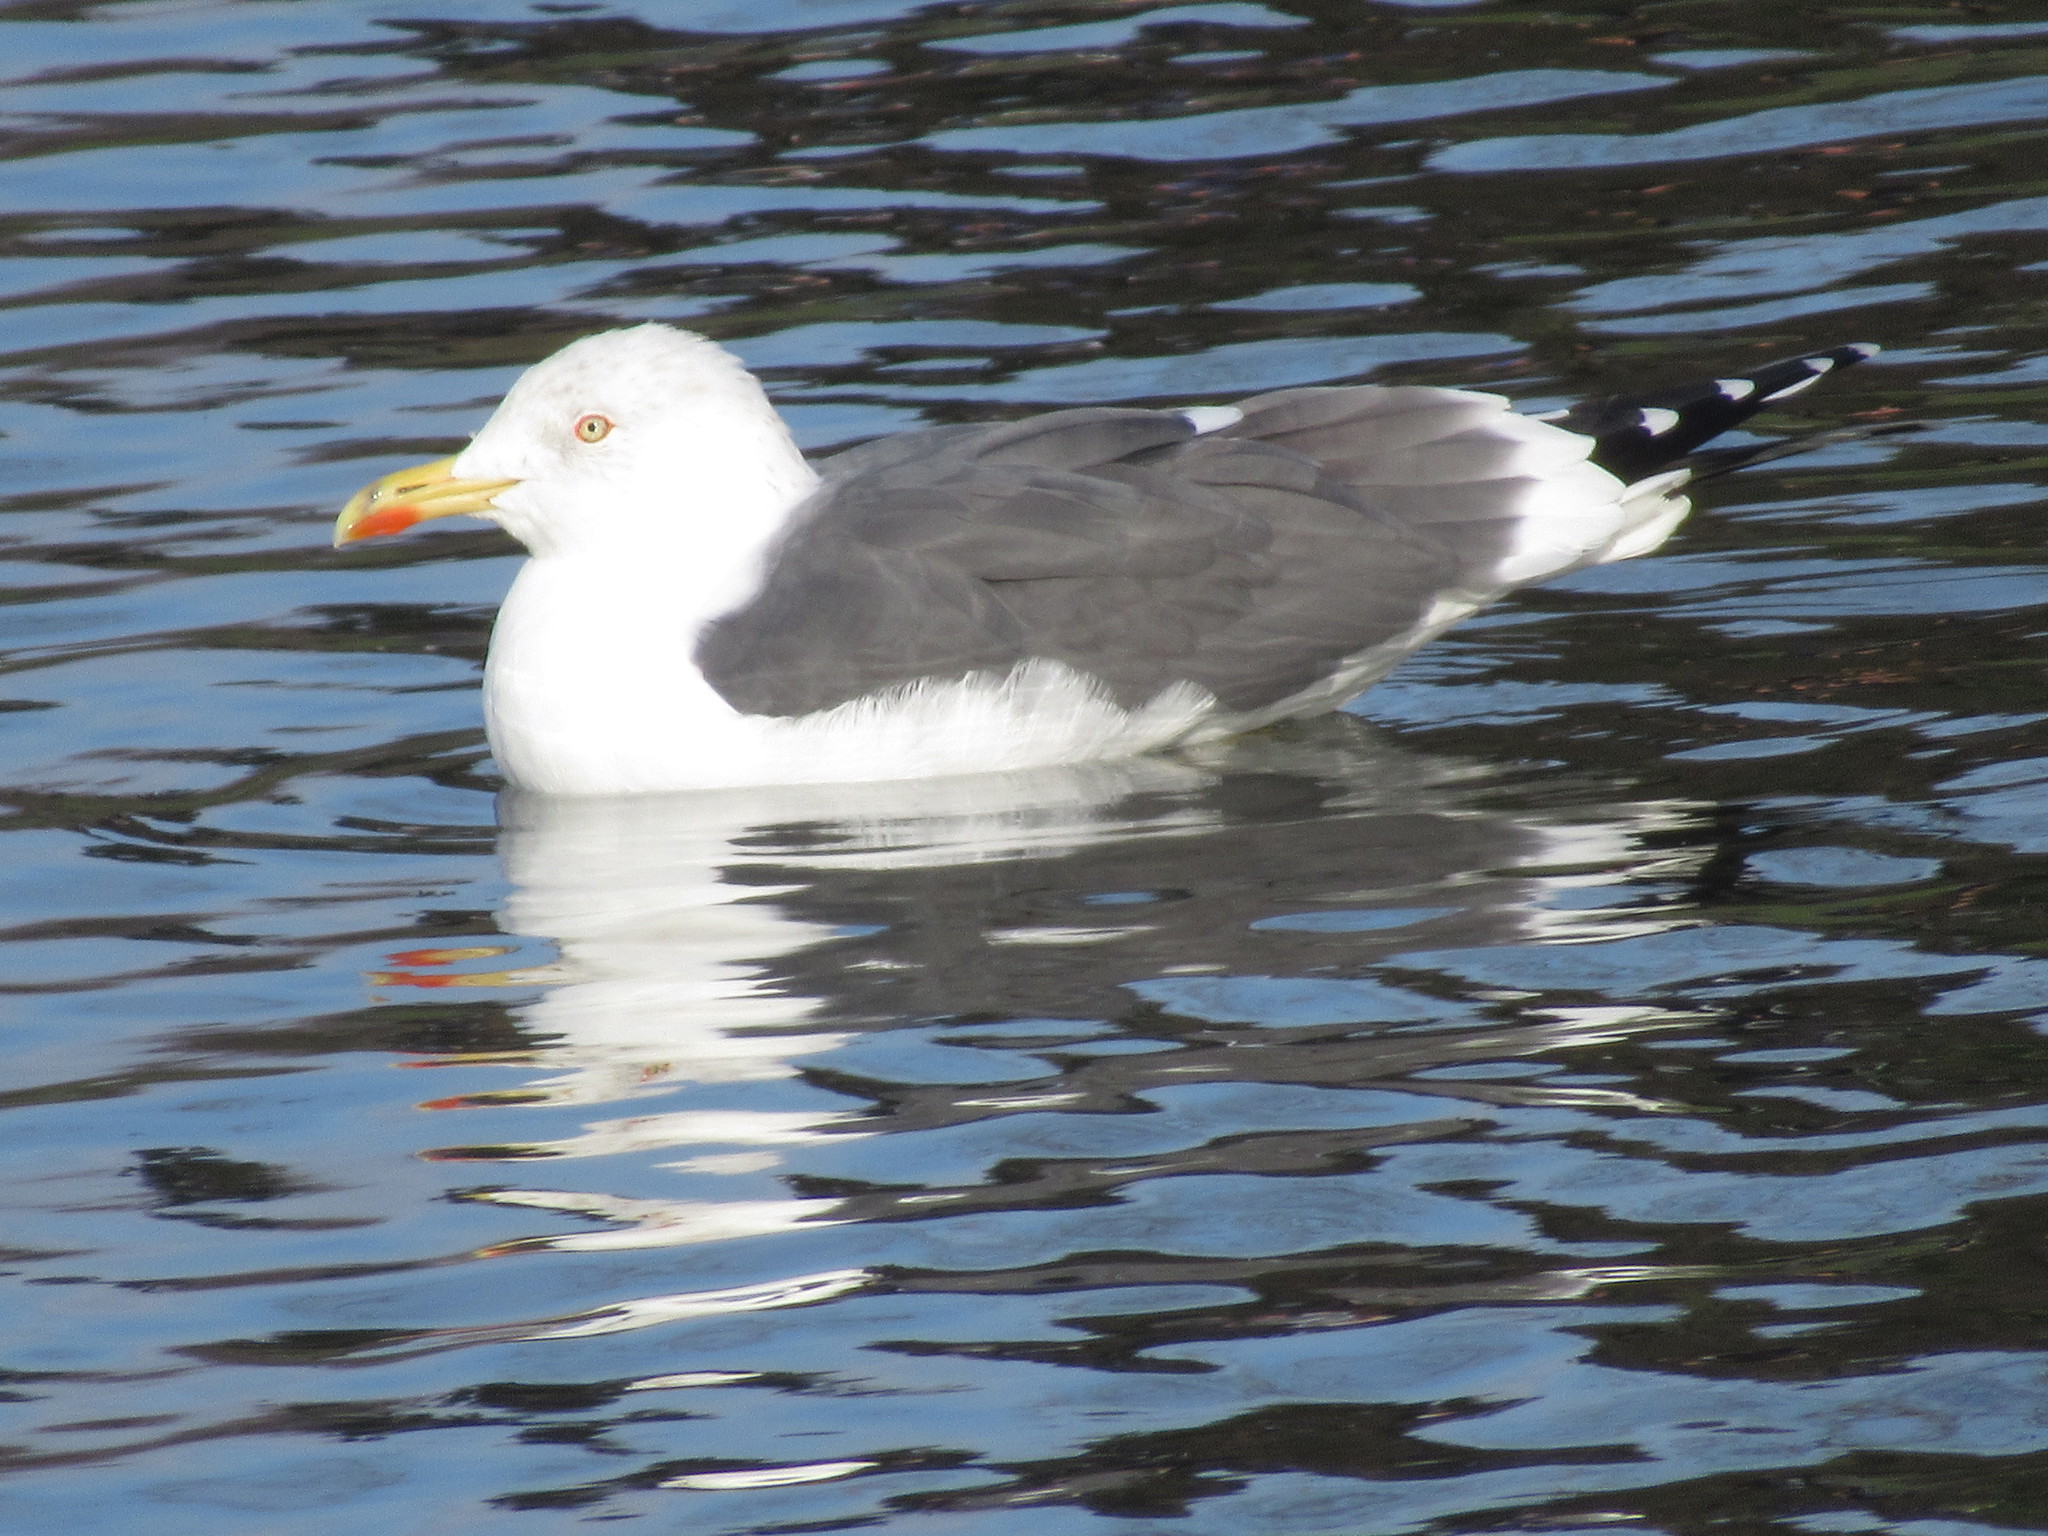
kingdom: Animalia
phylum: Chordata
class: Aves
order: Charadriiformes
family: Laridae
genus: Larus
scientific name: Larus fuscus
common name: Lesser black-backed gull
